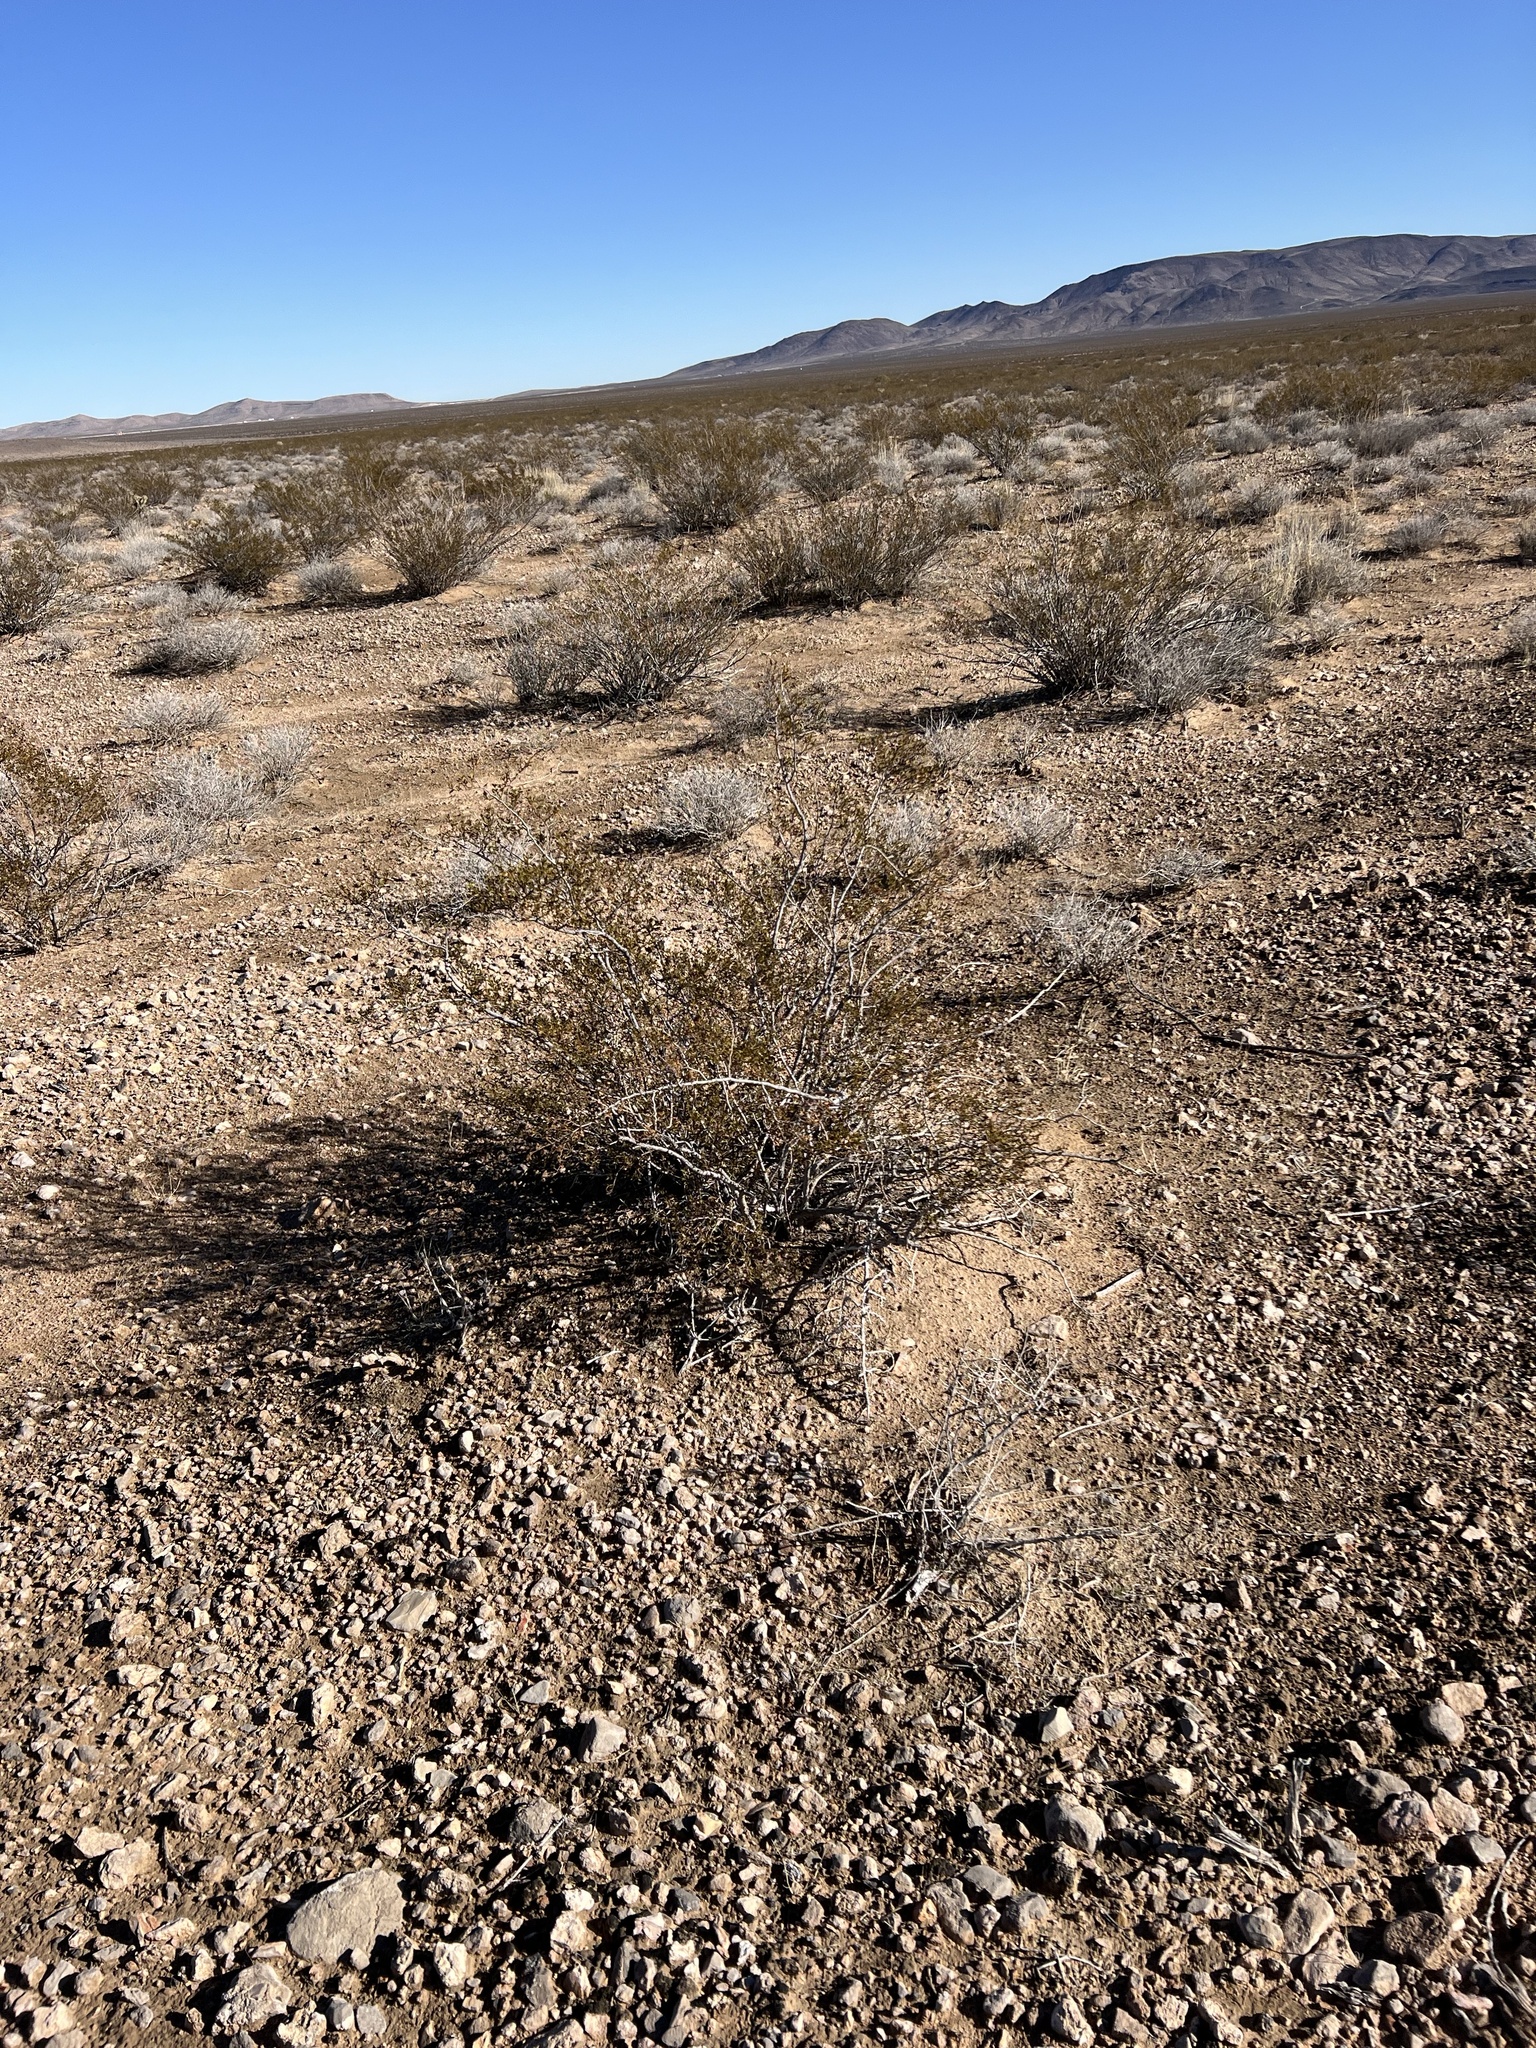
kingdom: Plantae
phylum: Tracheophyta
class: Magnoliopsida
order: Zygophyllales
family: Zygophyllaceae
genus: Larrea
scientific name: Larrea tridentata
